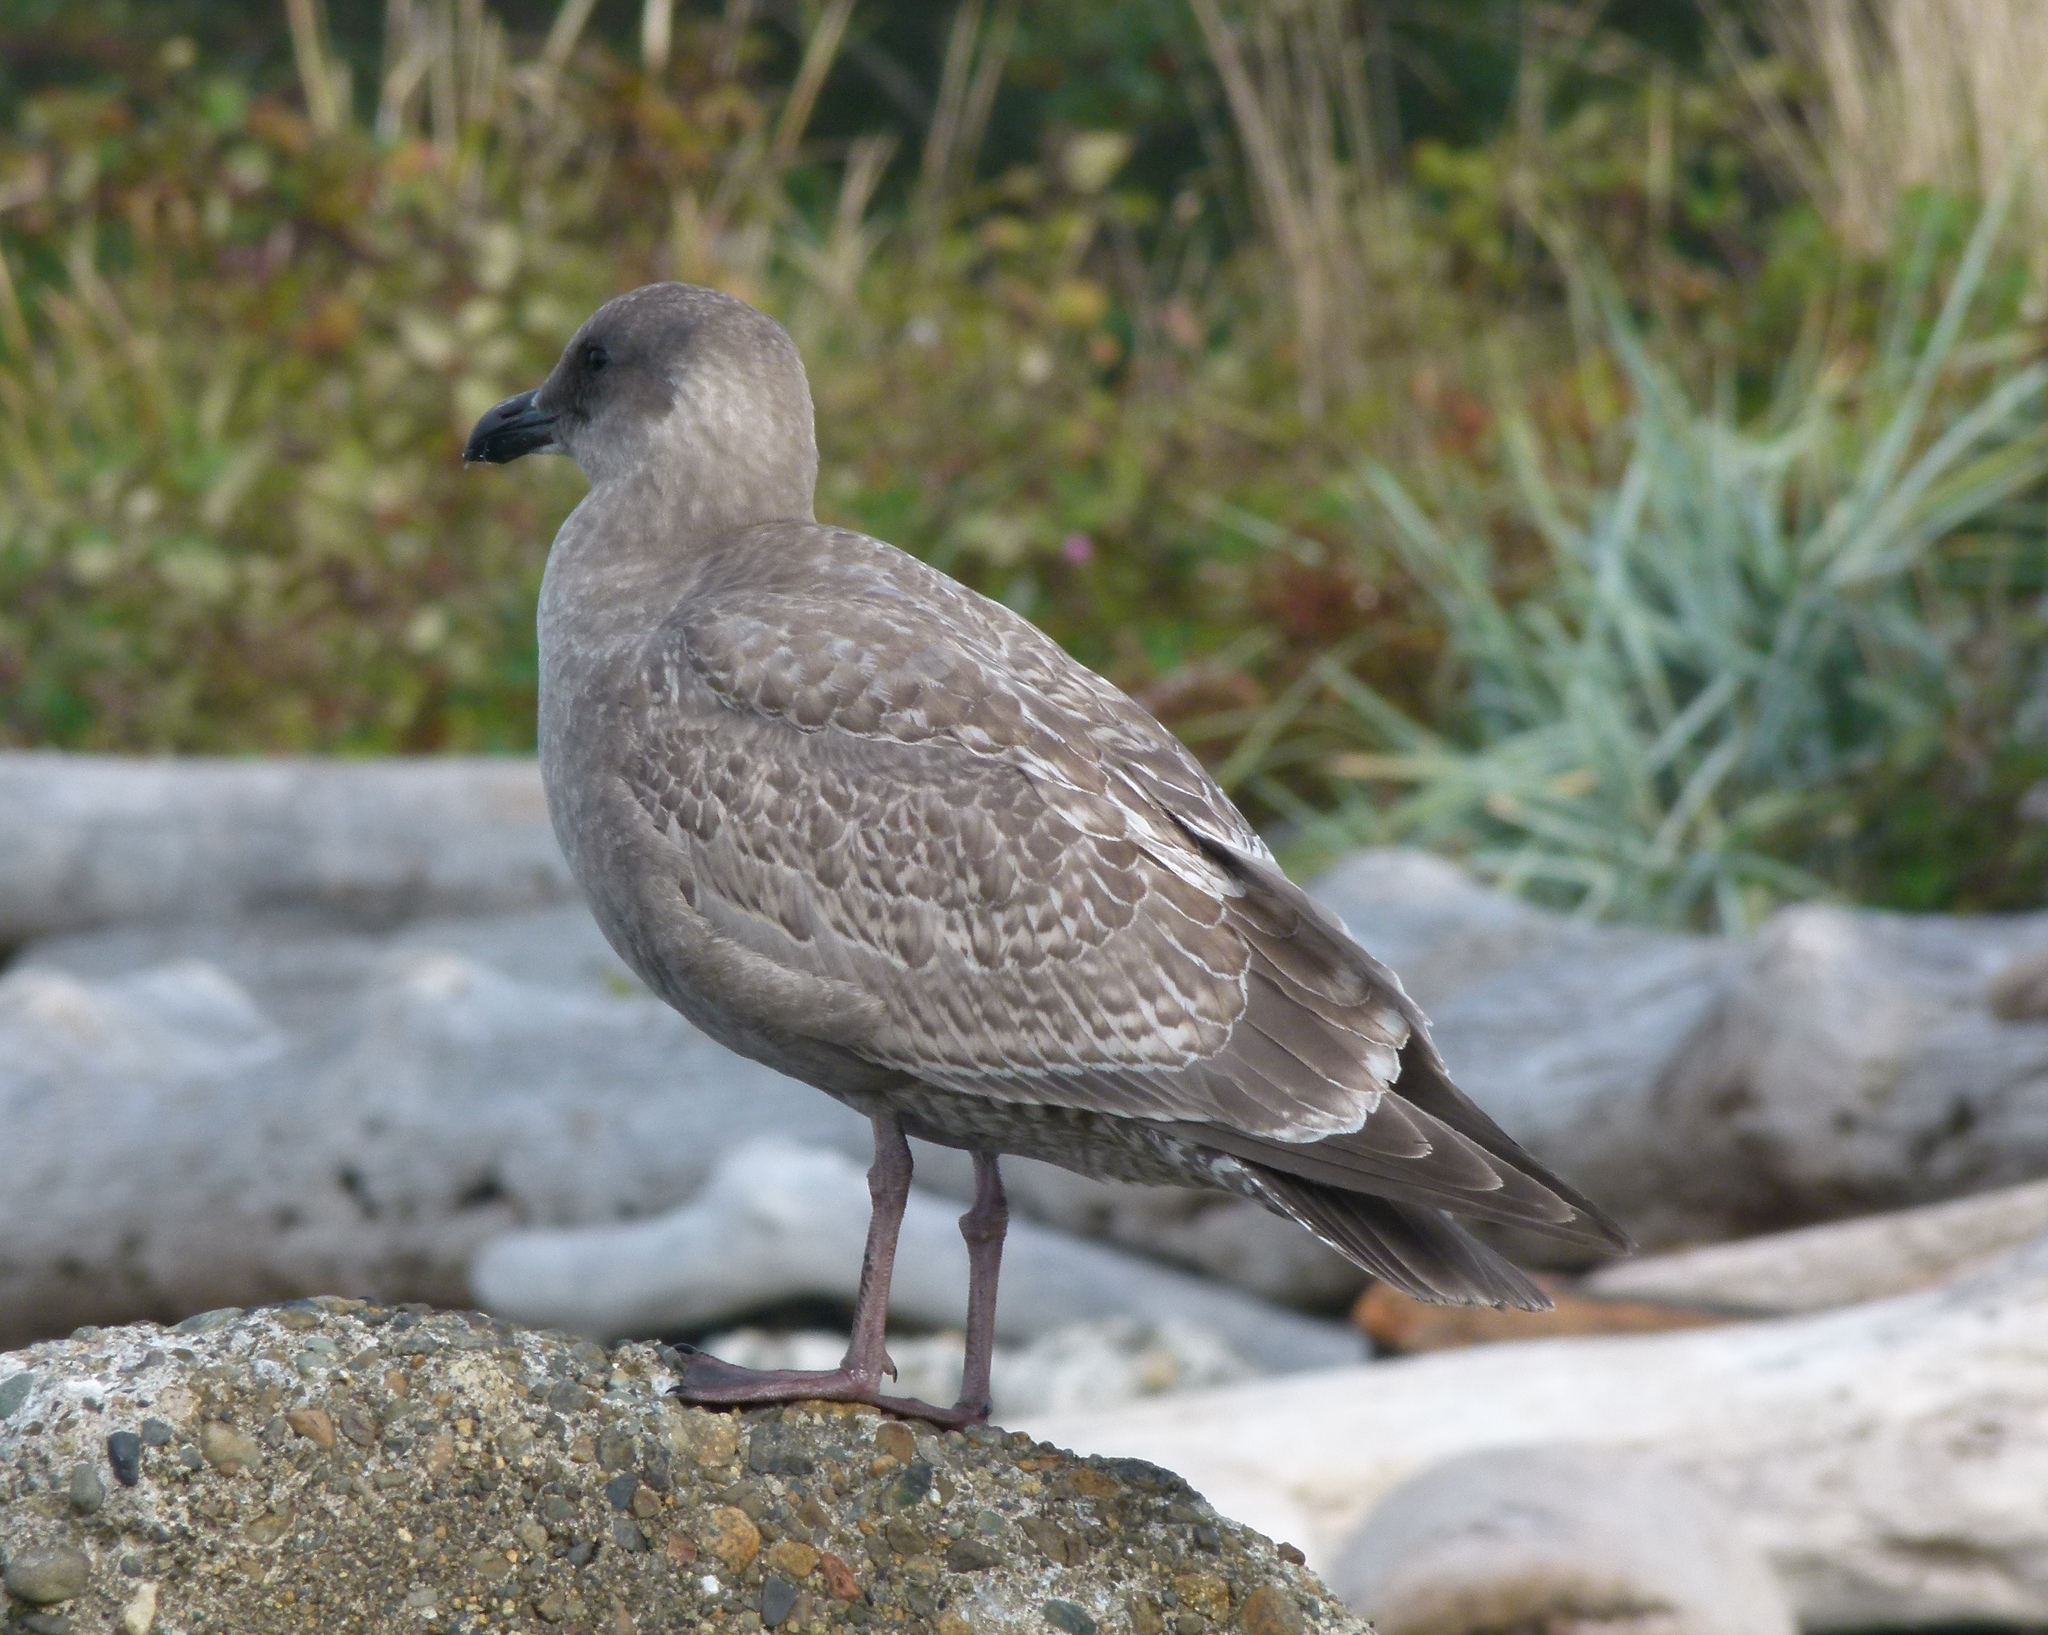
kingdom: Animalia
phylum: Chordata
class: Aves
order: Charadriiformes
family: Laridae
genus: Larus
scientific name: Larus
